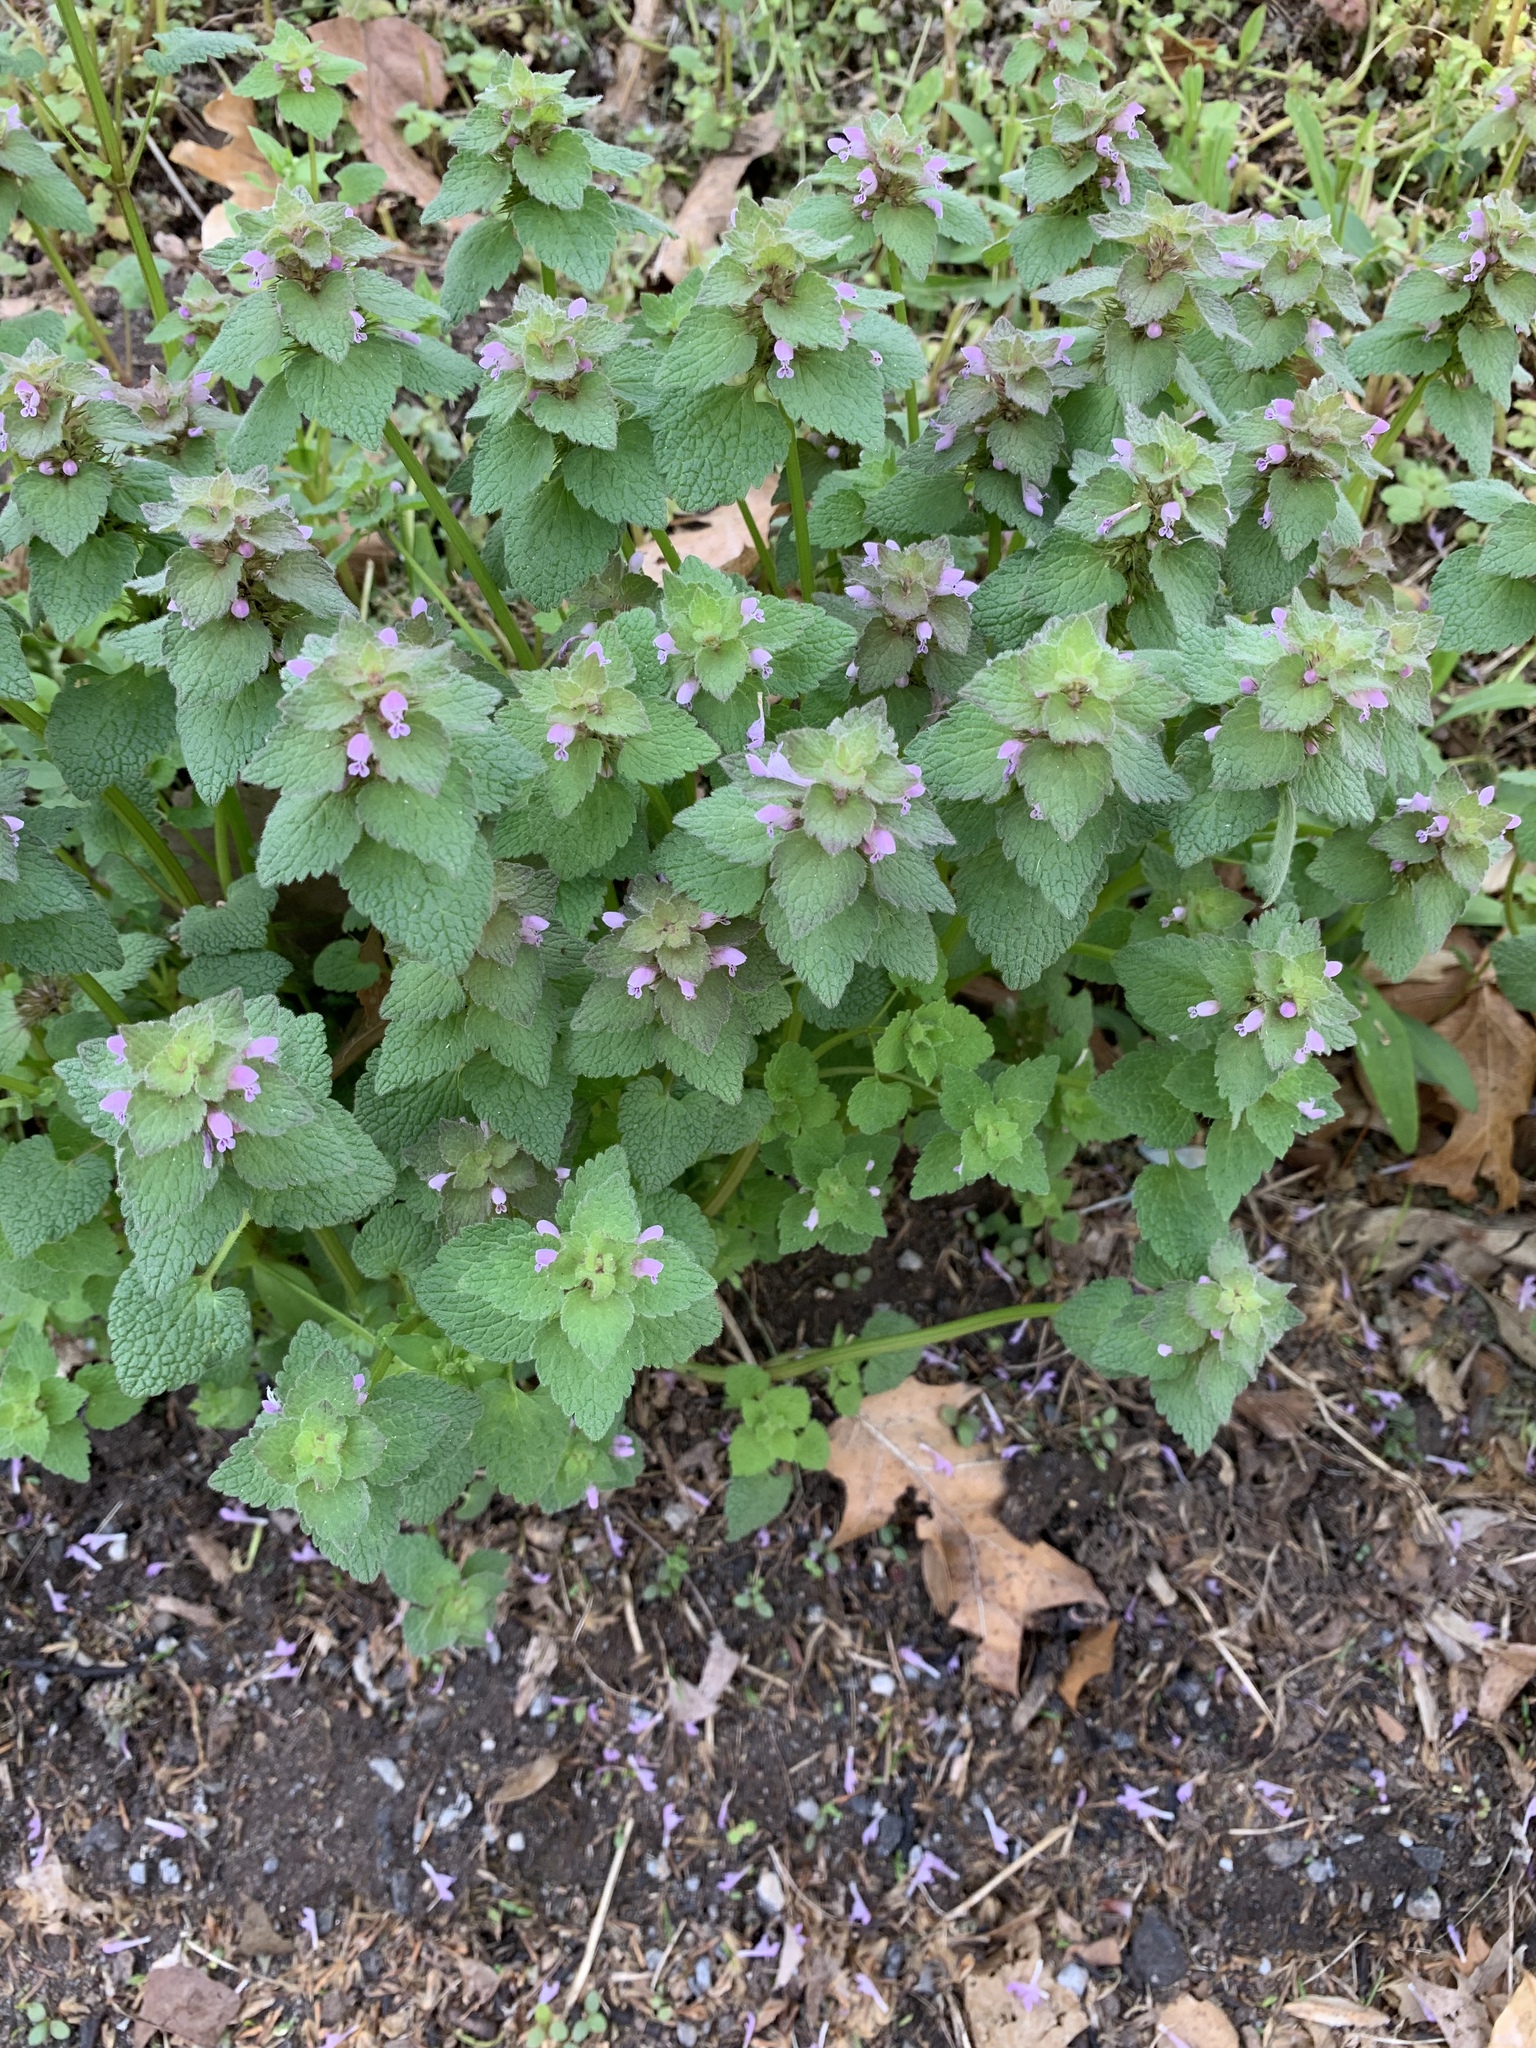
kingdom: Plantae
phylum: Tracheophyta
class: Magnoliopsida
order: Lamiales
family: Lamiaceae
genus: Lamium
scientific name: Lamium purpureum
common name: Red dead-nettle
